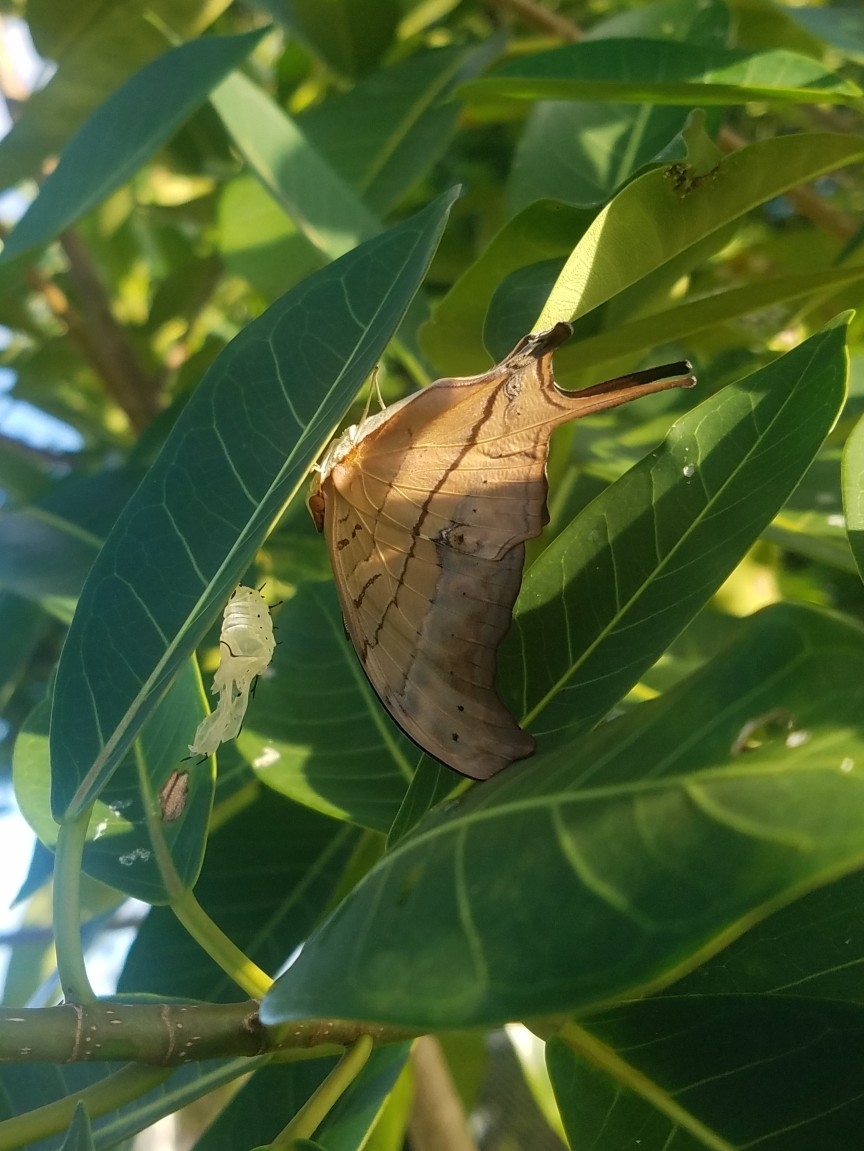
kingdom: Animalia
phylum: Arthropoda
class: Insecta
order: Lepidoptera
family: Nymphalidae
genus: Marpesia
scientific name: Marpesia petreus
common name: Red dagger wing
